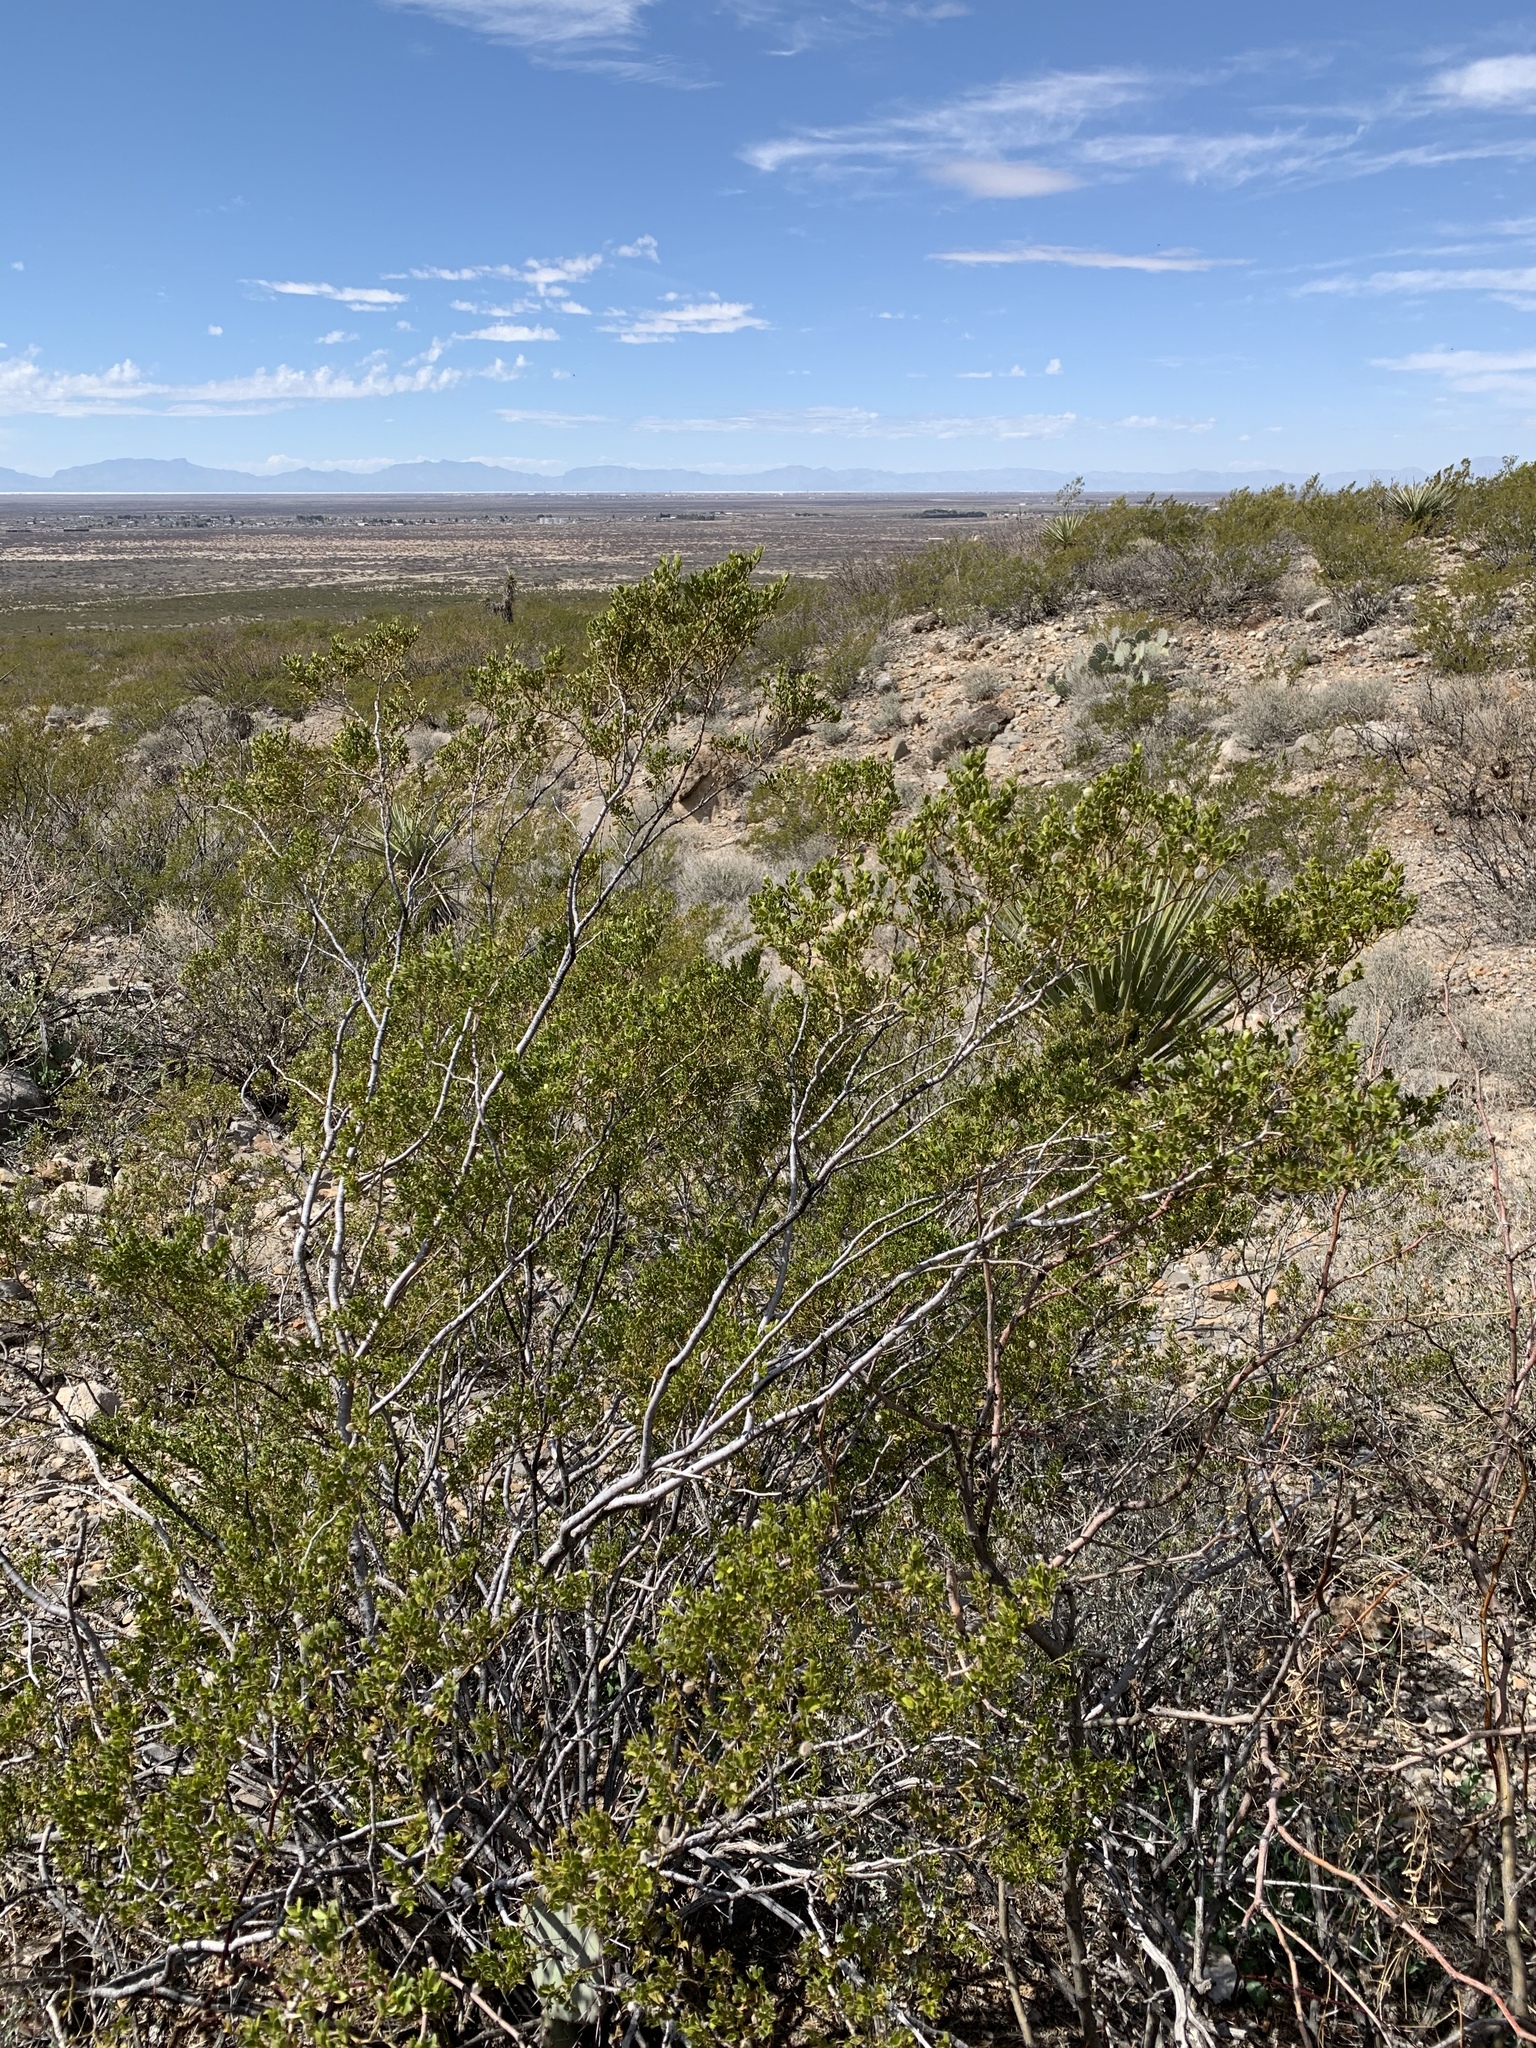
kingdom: Plantae
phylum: Tracheophyta
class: Magnoliopsida
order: Zygophyllales
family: Zygophyllaceae
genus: Larrea
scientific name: Larrea tridentata
